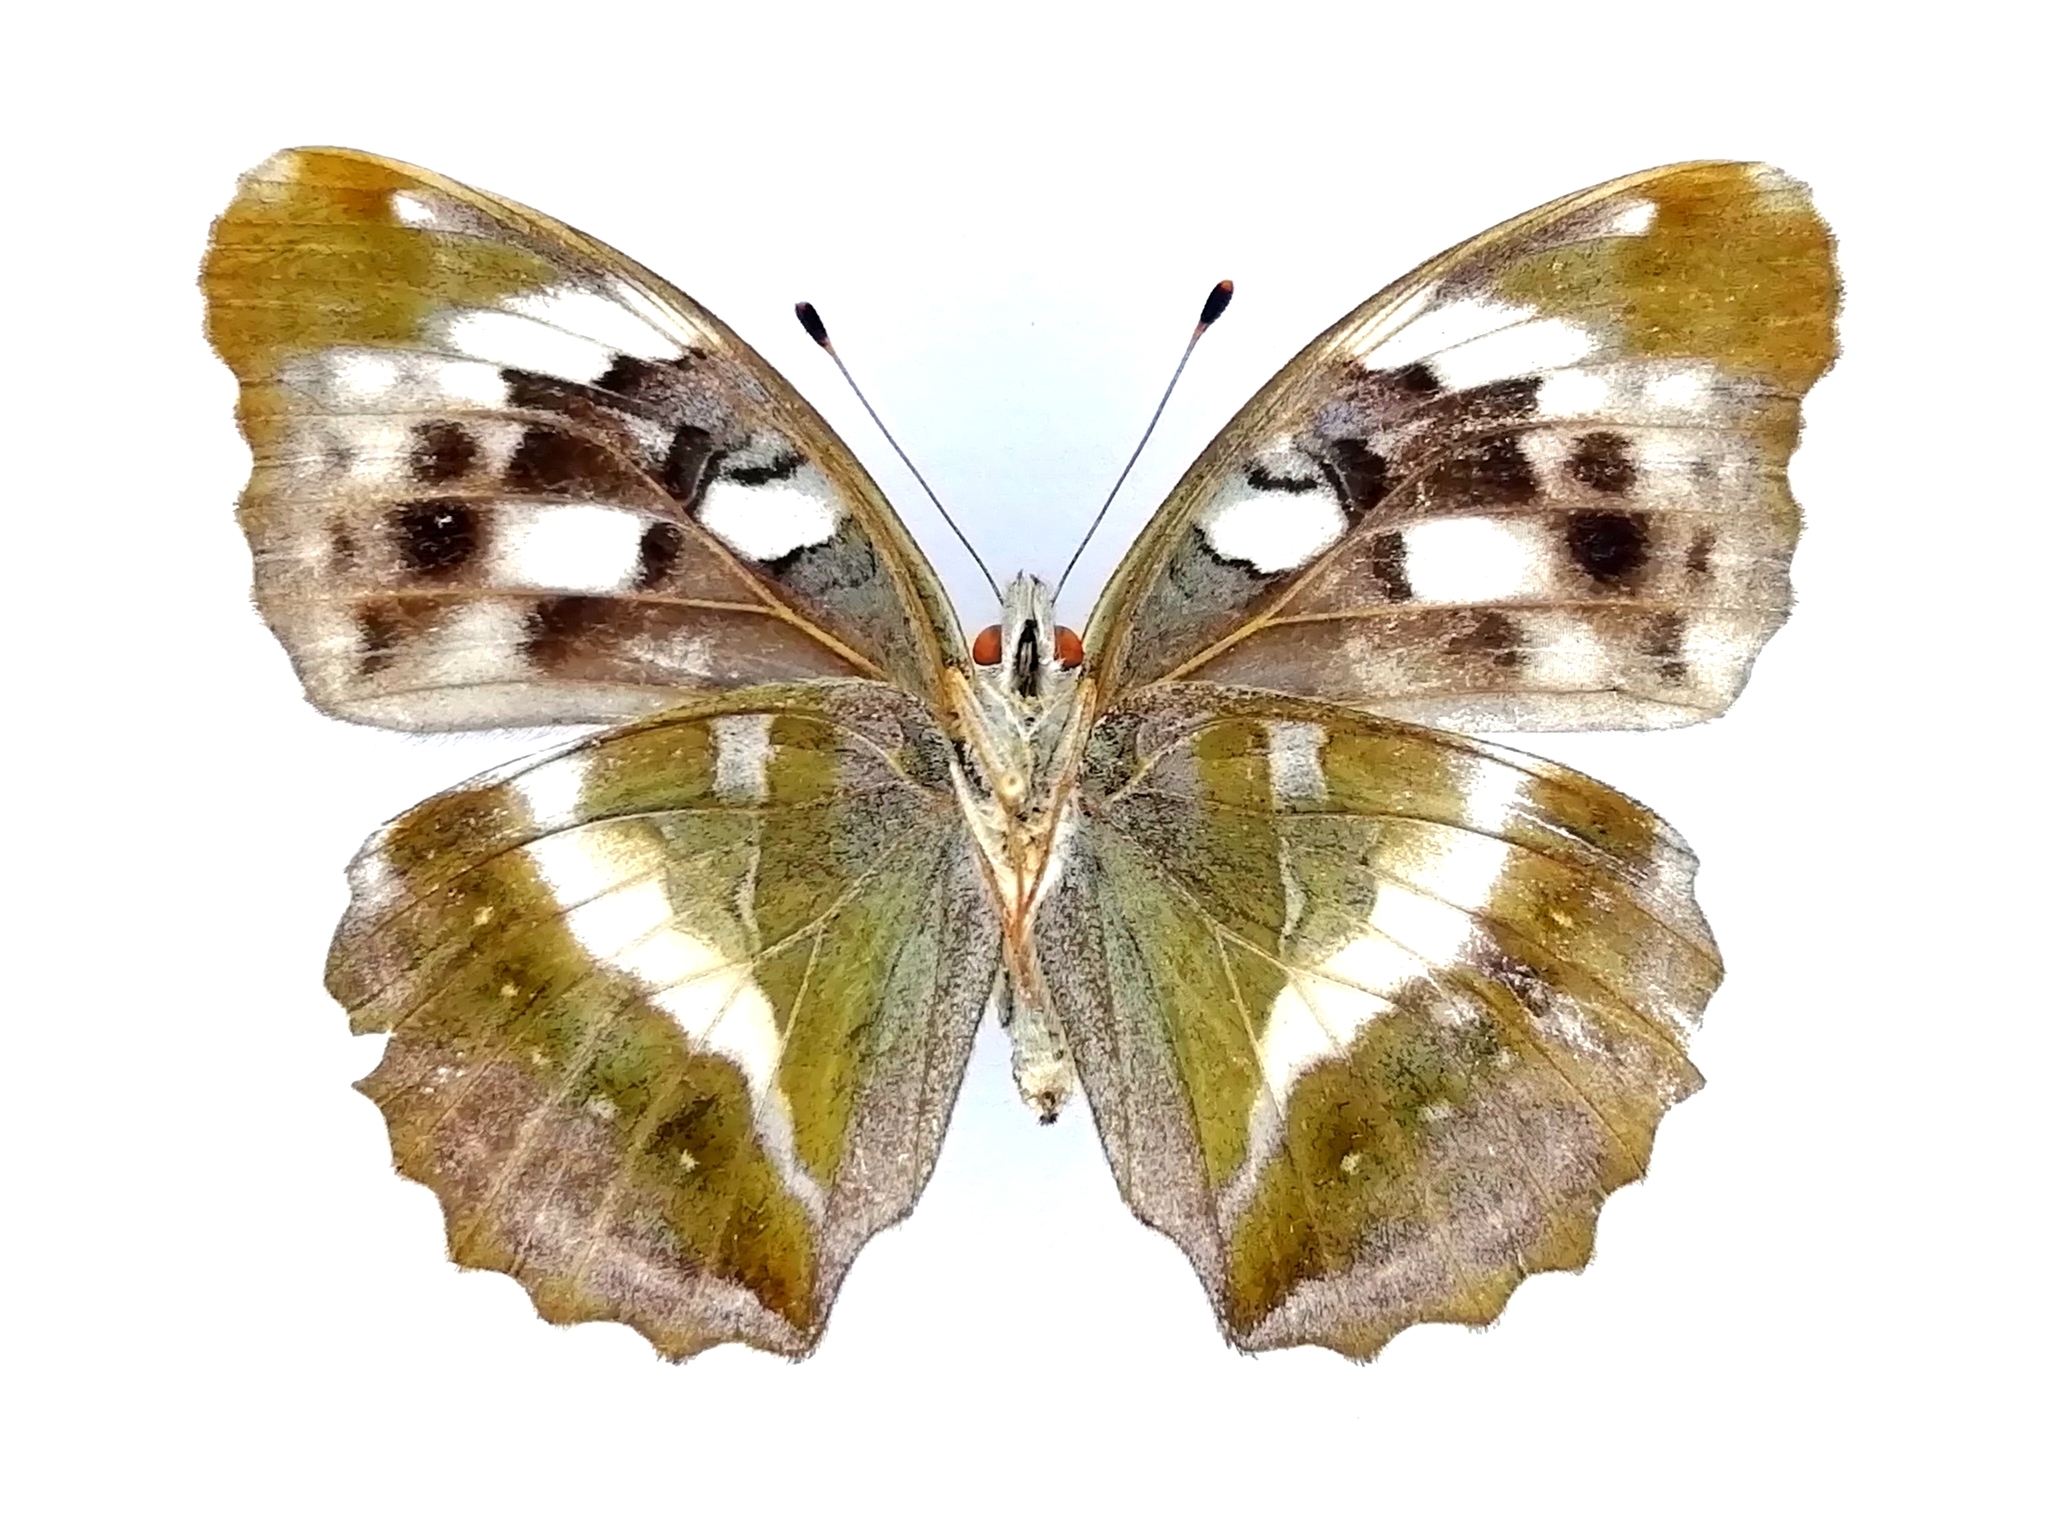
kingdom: Animalia
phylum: Arthropoda
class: Insecta
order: Lepidoptera
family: Nymphalidae
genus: Damora
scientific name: Damora sagana
